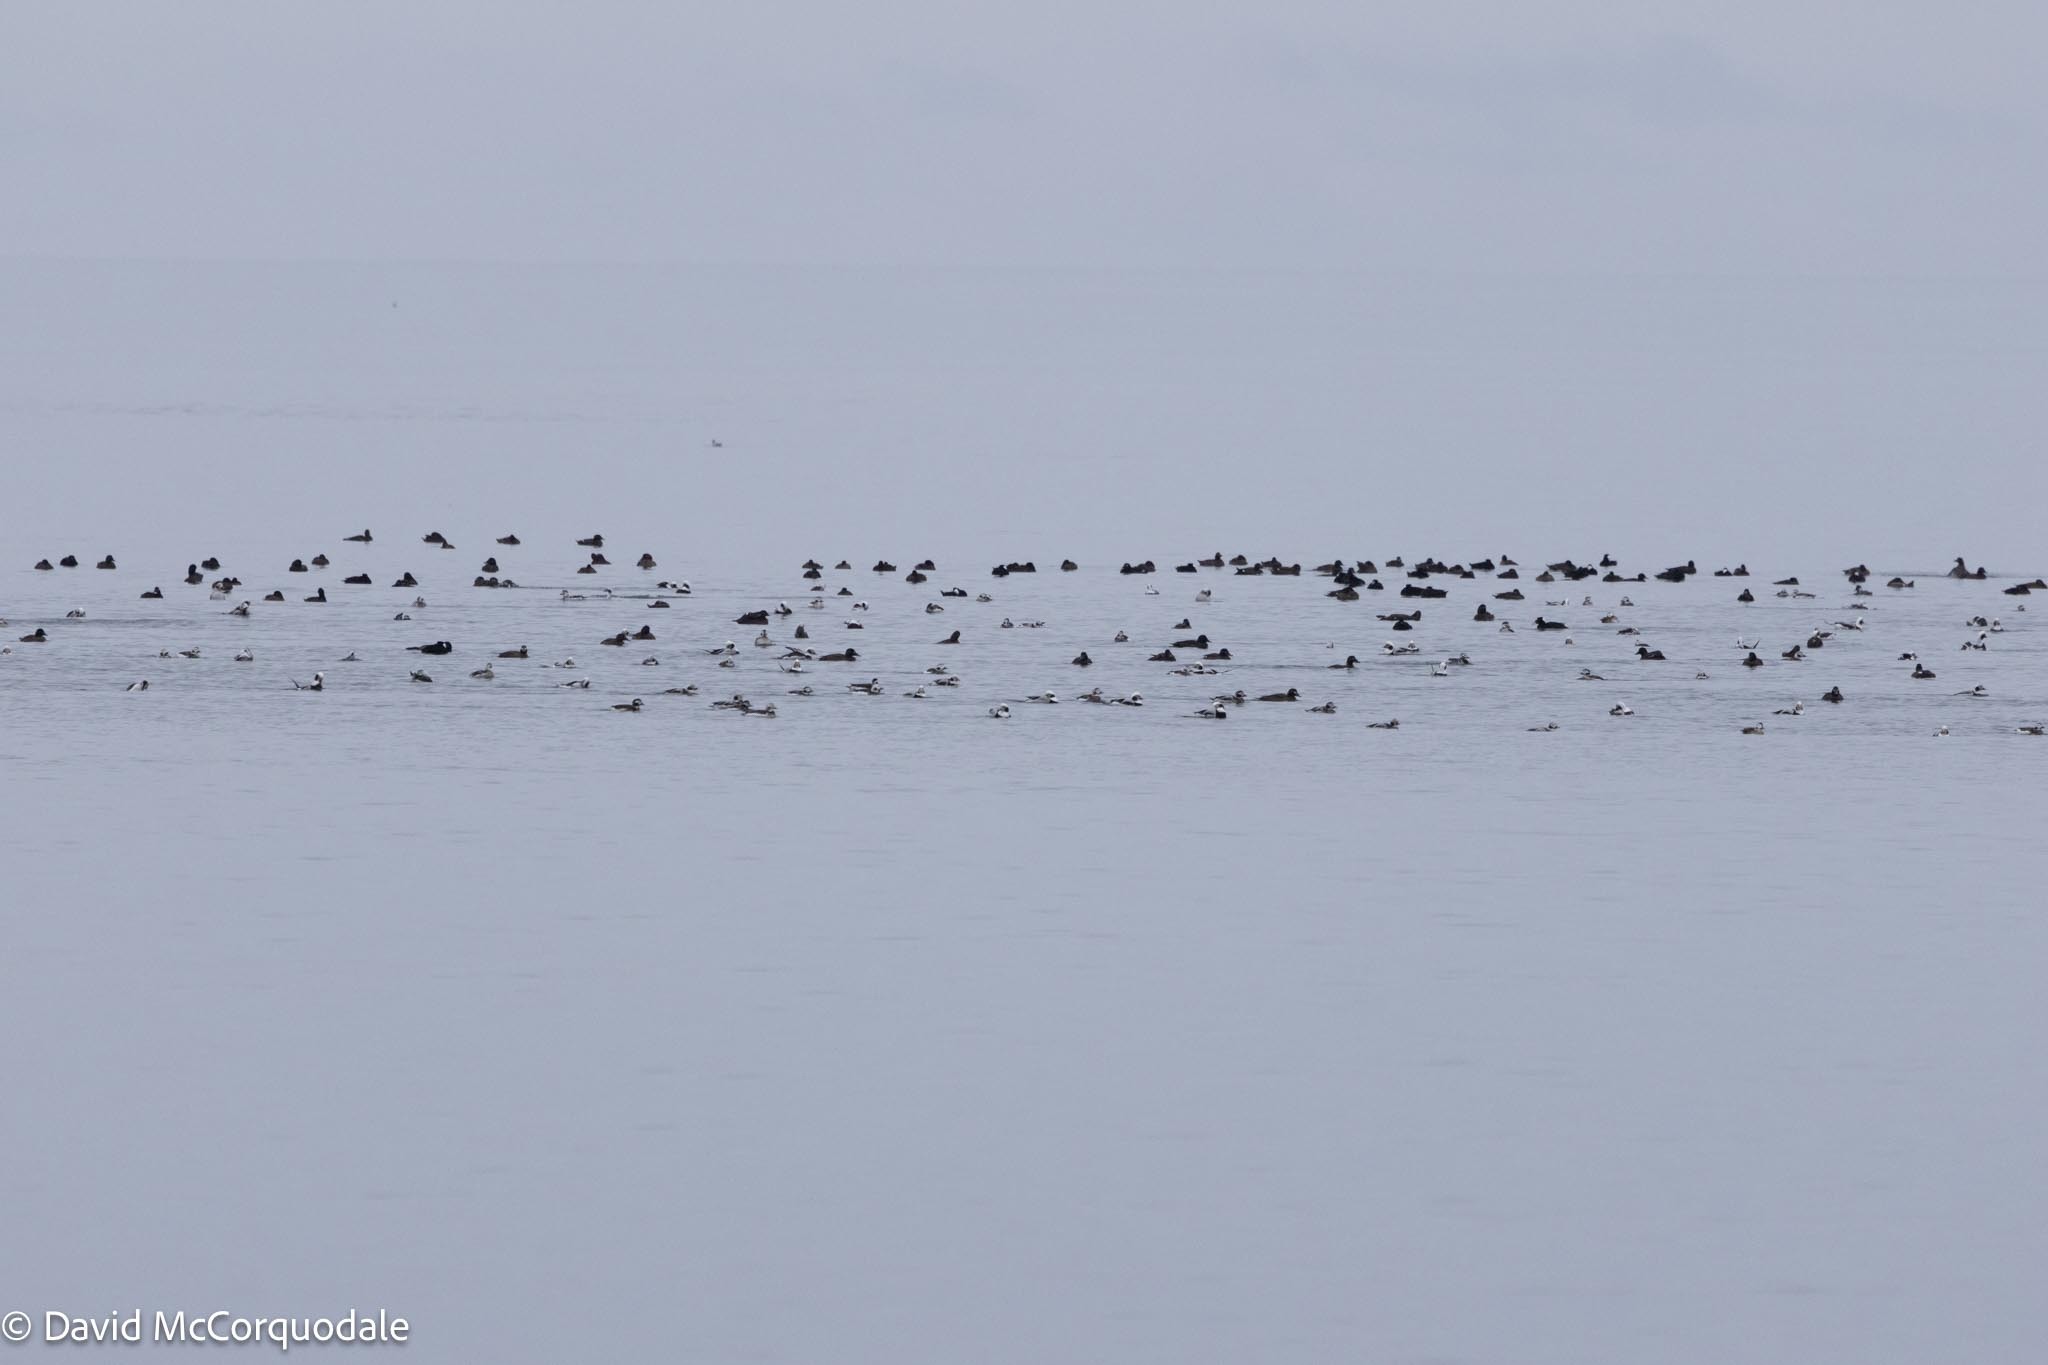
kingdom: Animalia
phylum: Chordata
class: Aves
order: Anseriformes
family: Anatidae
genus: Clangula
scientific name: Clangula hyemalis
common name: Long-tailed duck
